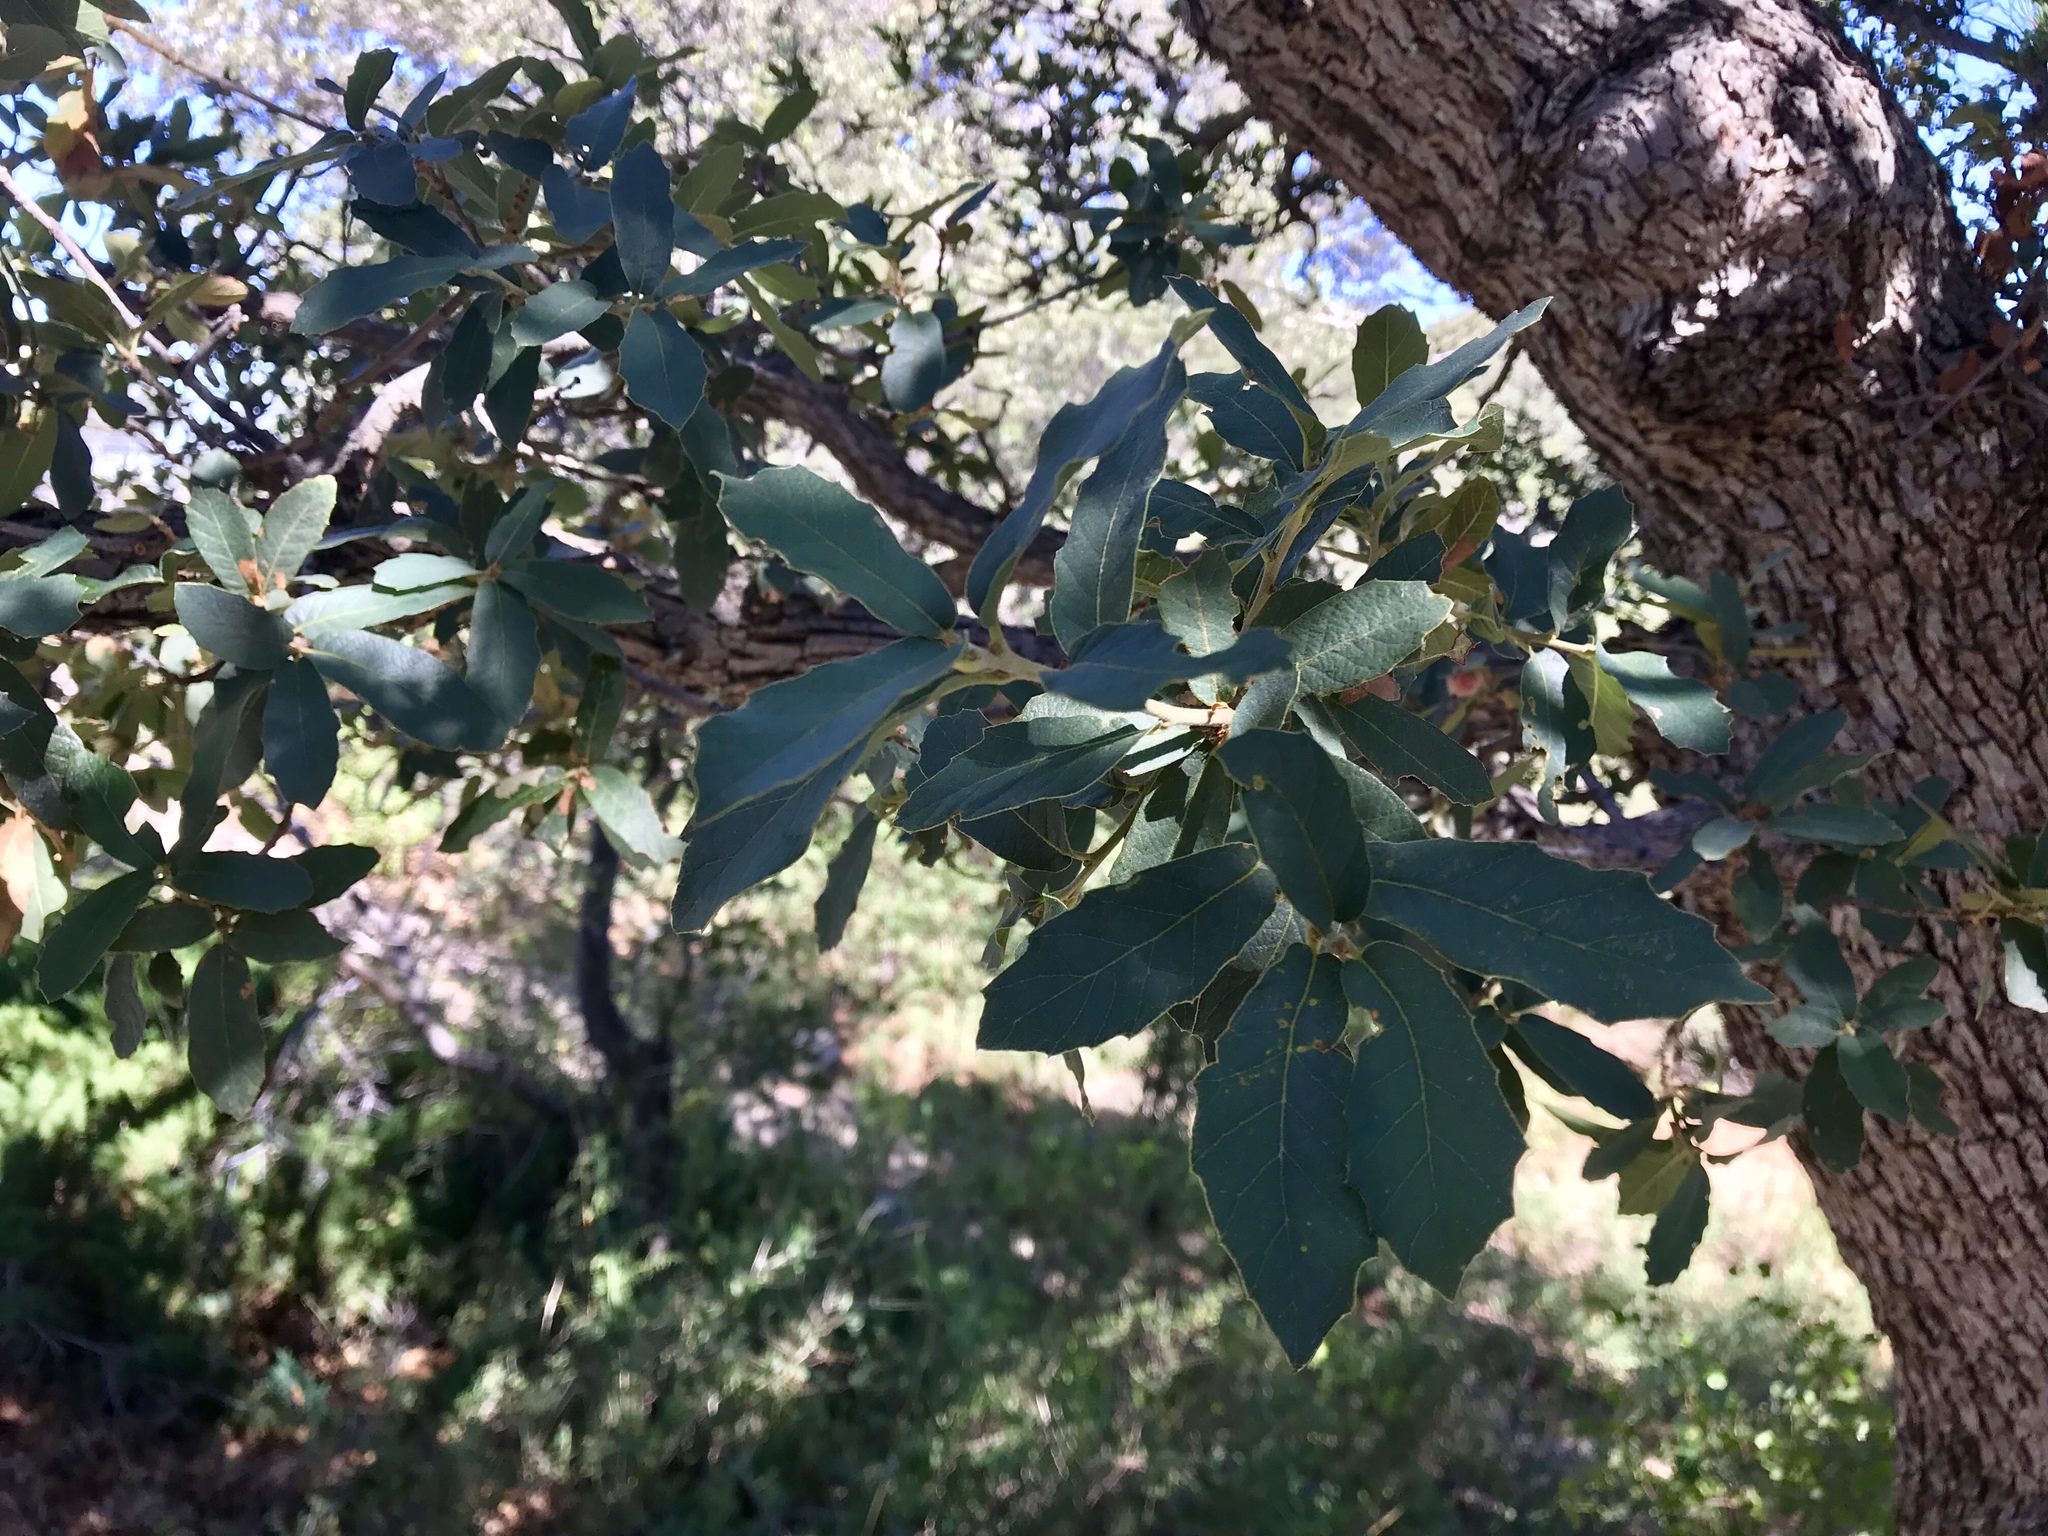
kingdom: Plantae
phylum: Tracheophyta
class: Magnoliopsida
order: Fagales
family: Fagaceae
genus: Quercus
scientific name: Quercus grisea
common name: Gray oak
